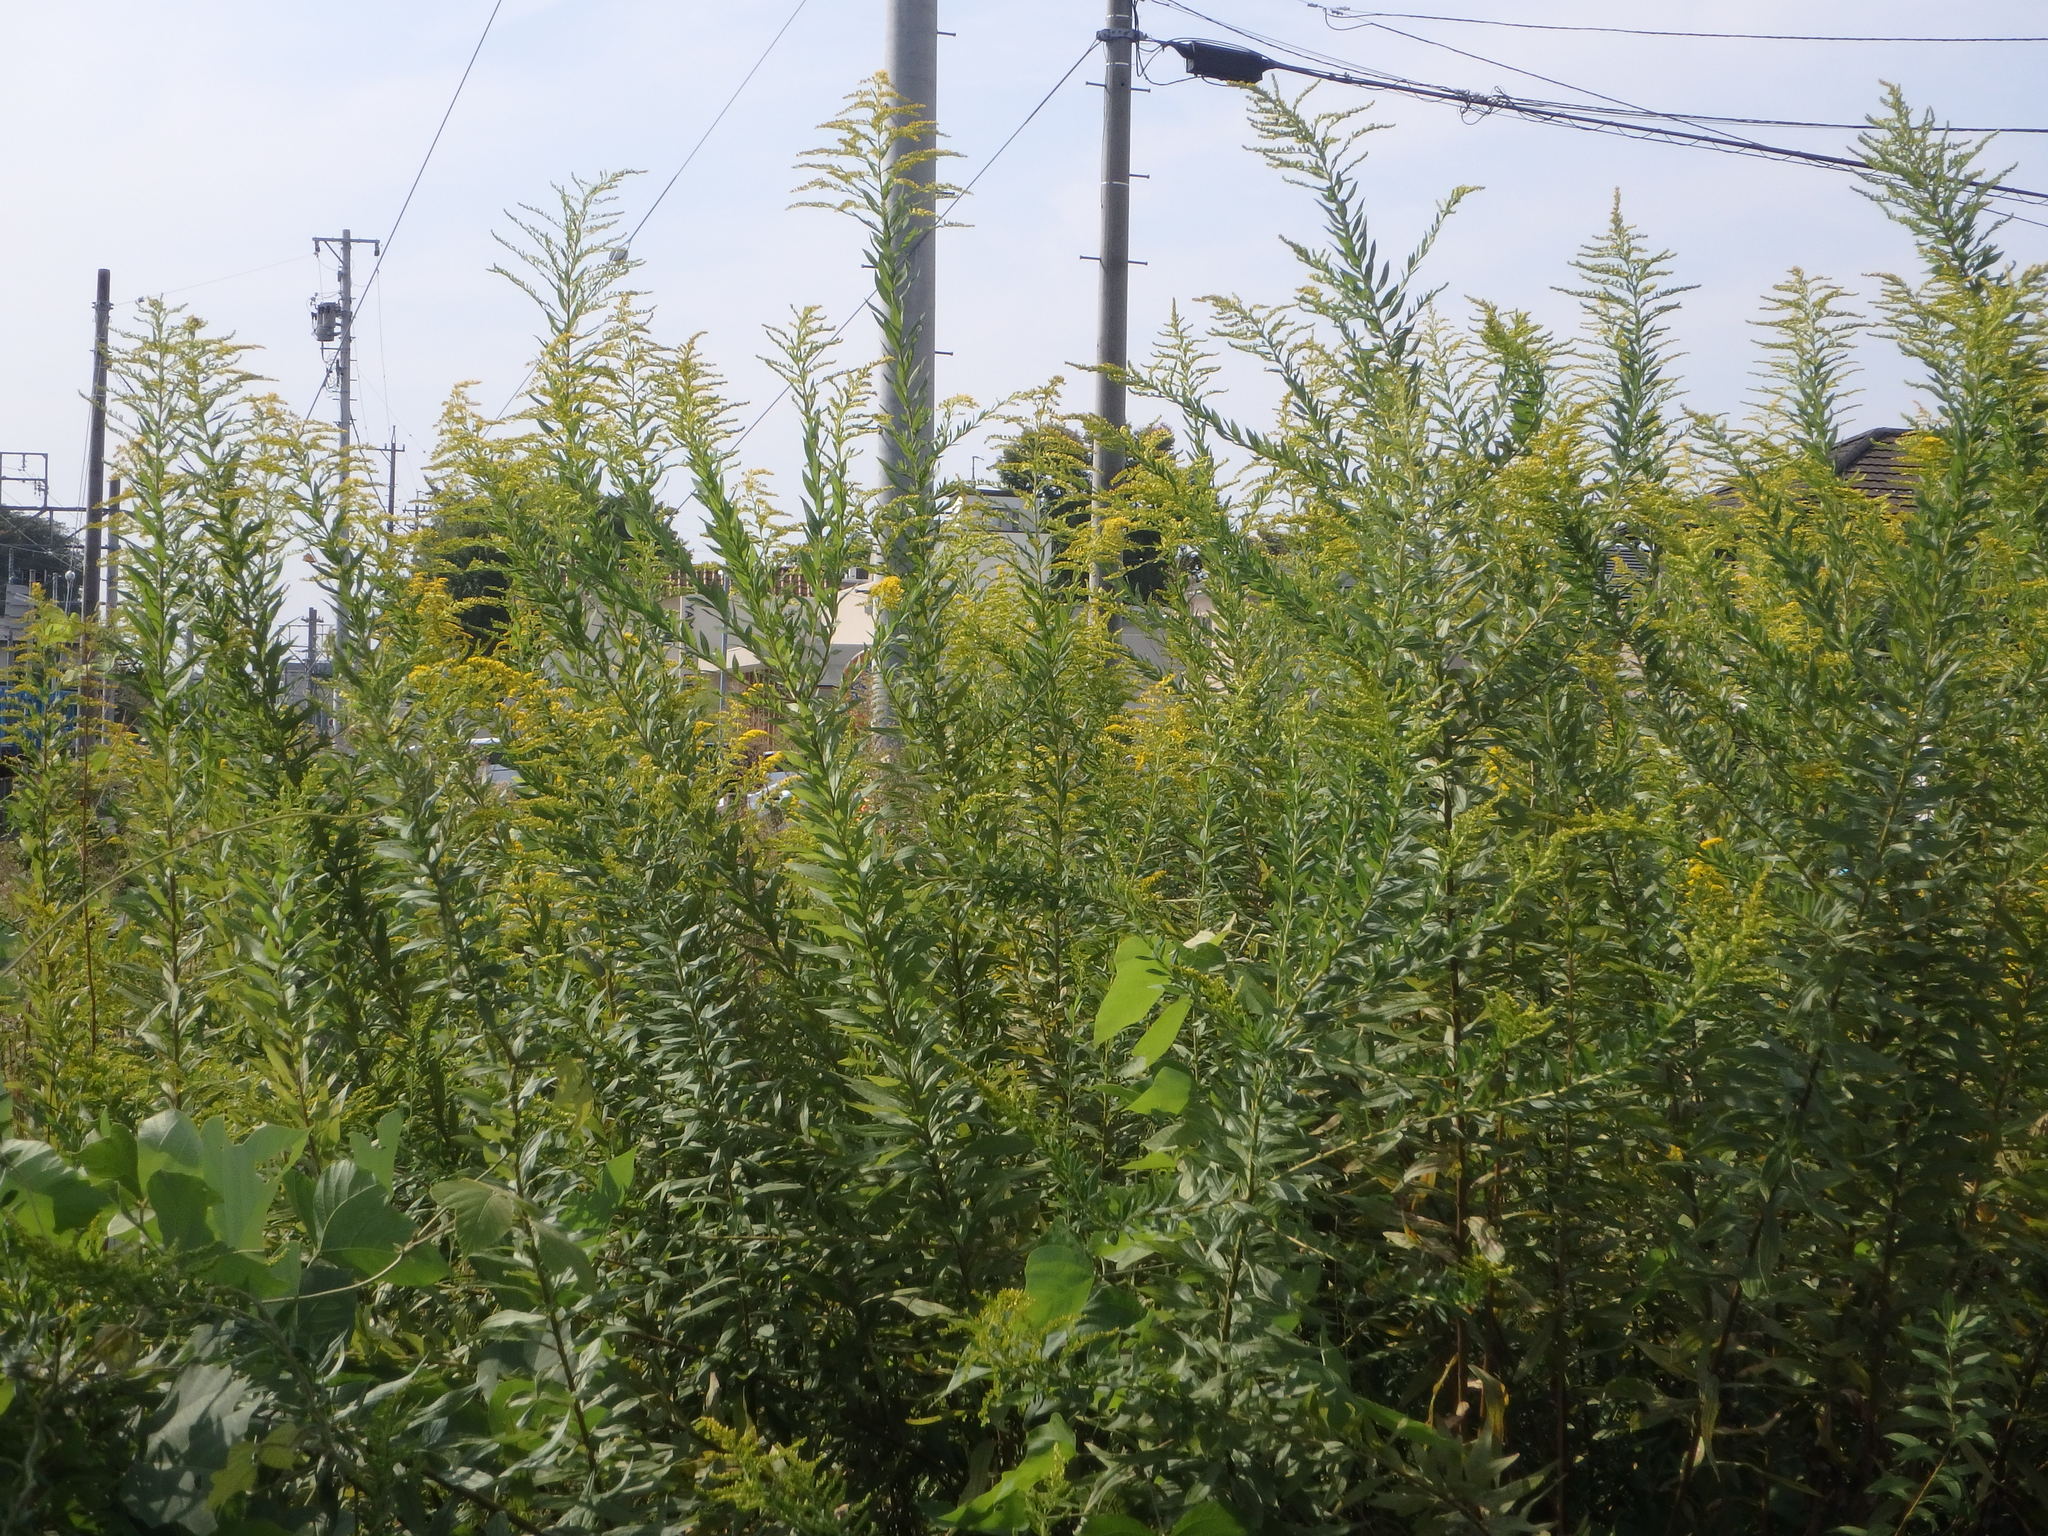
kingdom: Plantae
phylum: Tracheophyta
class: Magnoliopsida
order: Asterales
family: Asteraceae
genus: Solidago
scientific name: Solidago altissima
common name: Late goldenrod
